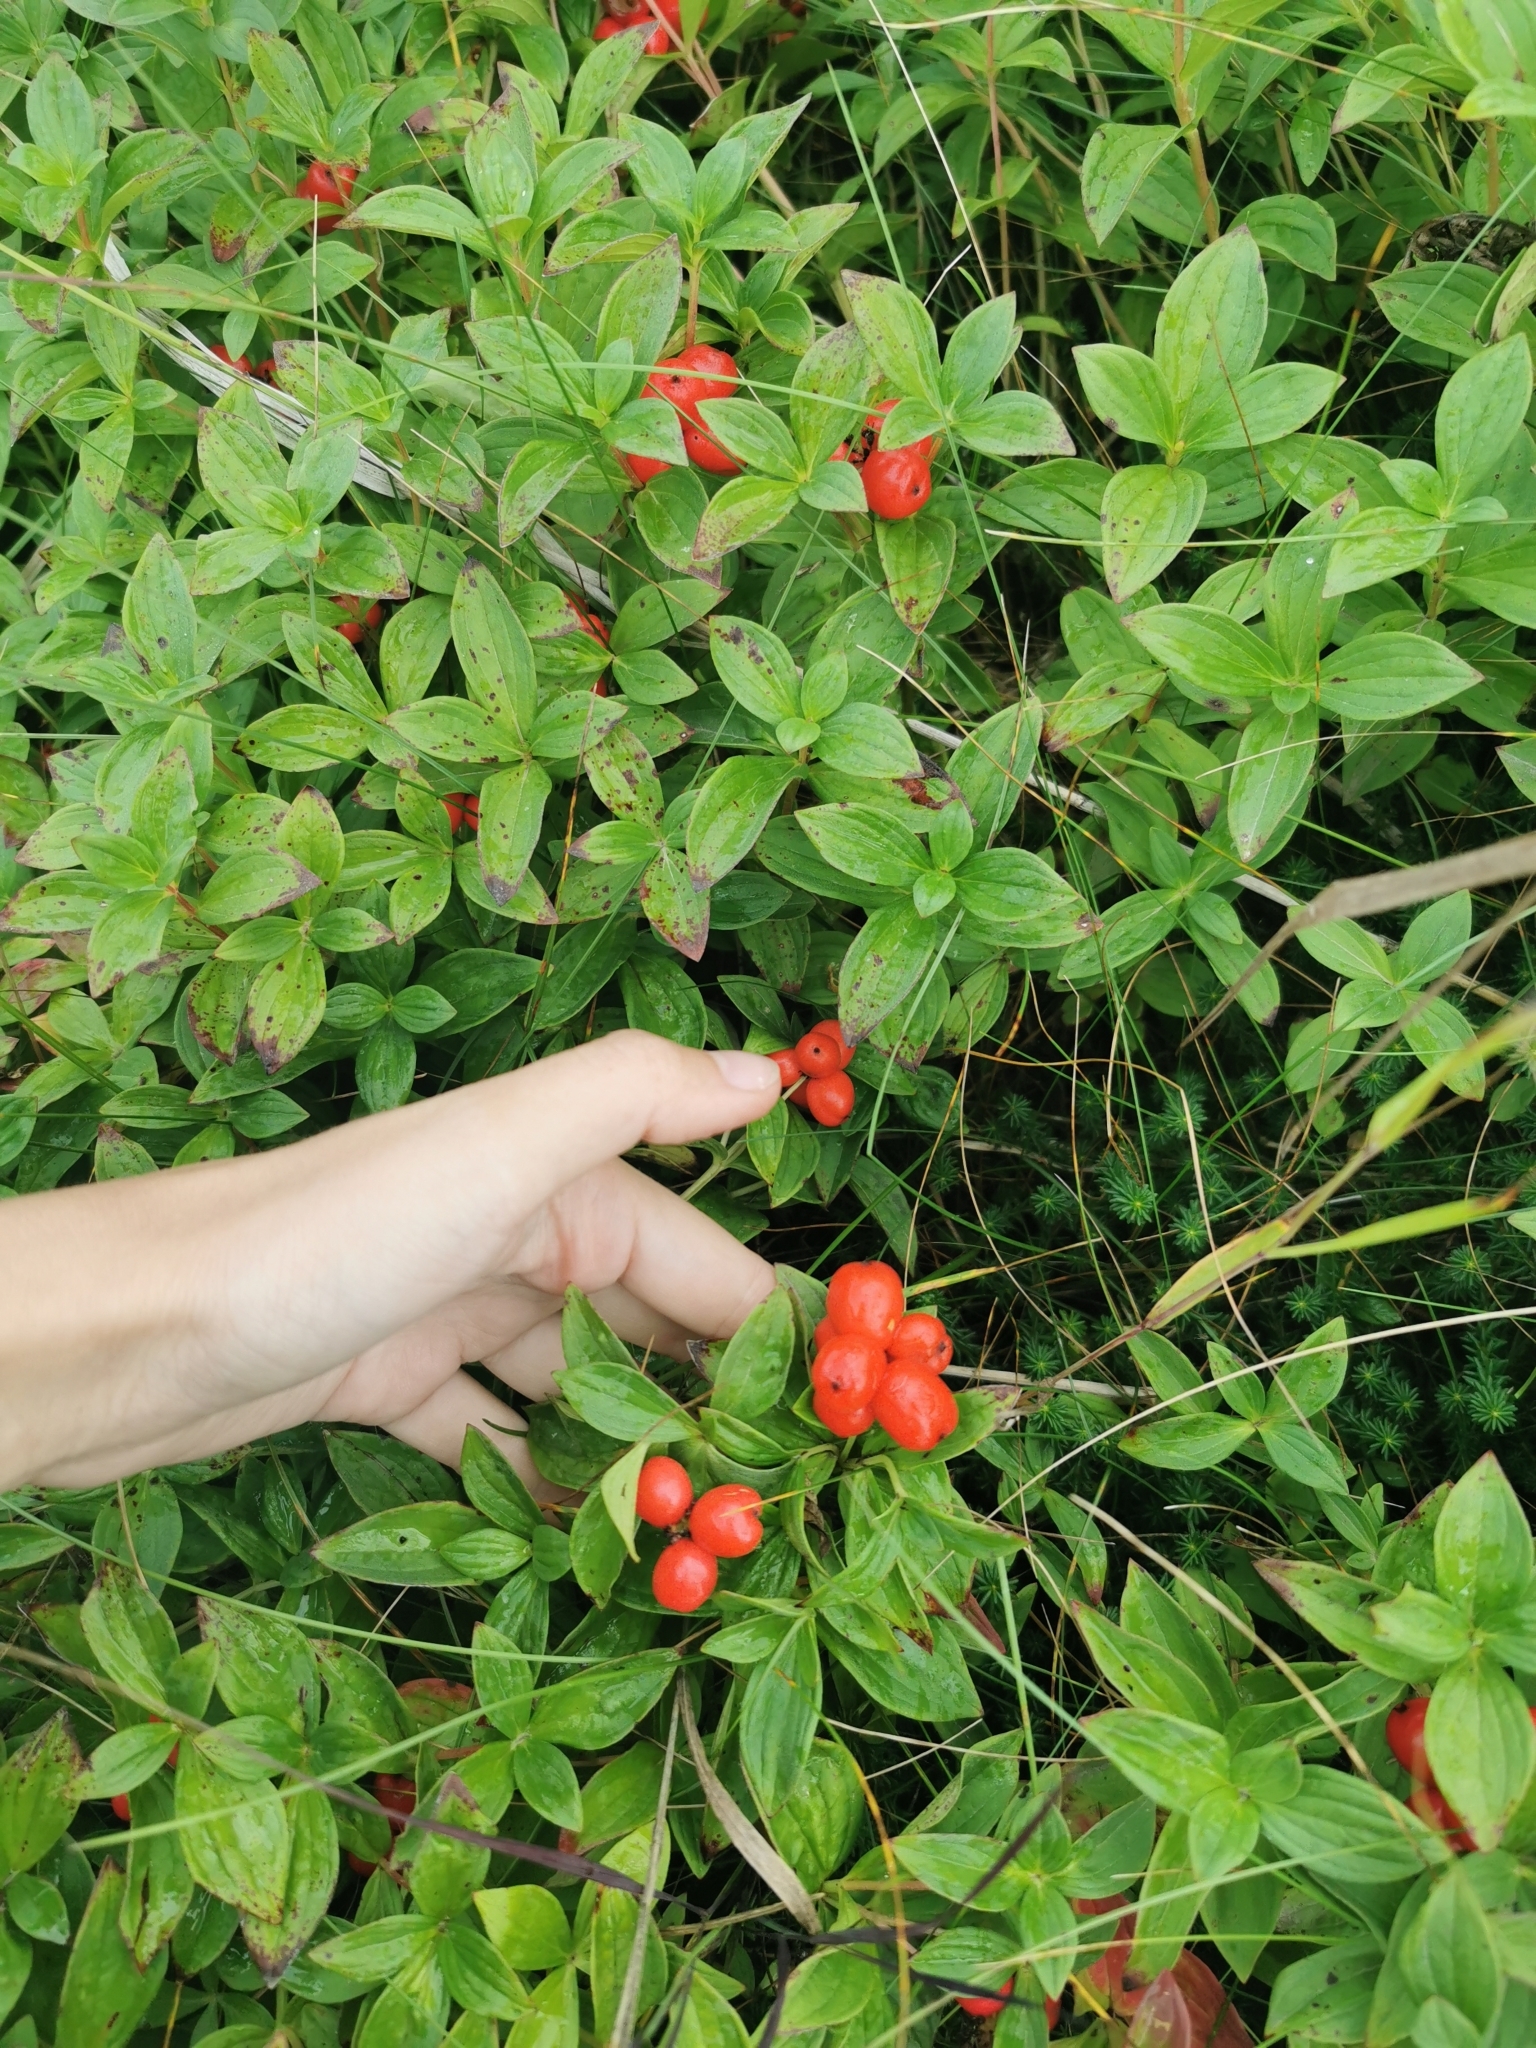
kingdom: Plantae
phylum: Tracheophyta
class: Magnoliopsida
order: Cornales
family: Cornaceae
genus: Cornus
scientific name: Cornus suecica
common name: Dwarf cornel
